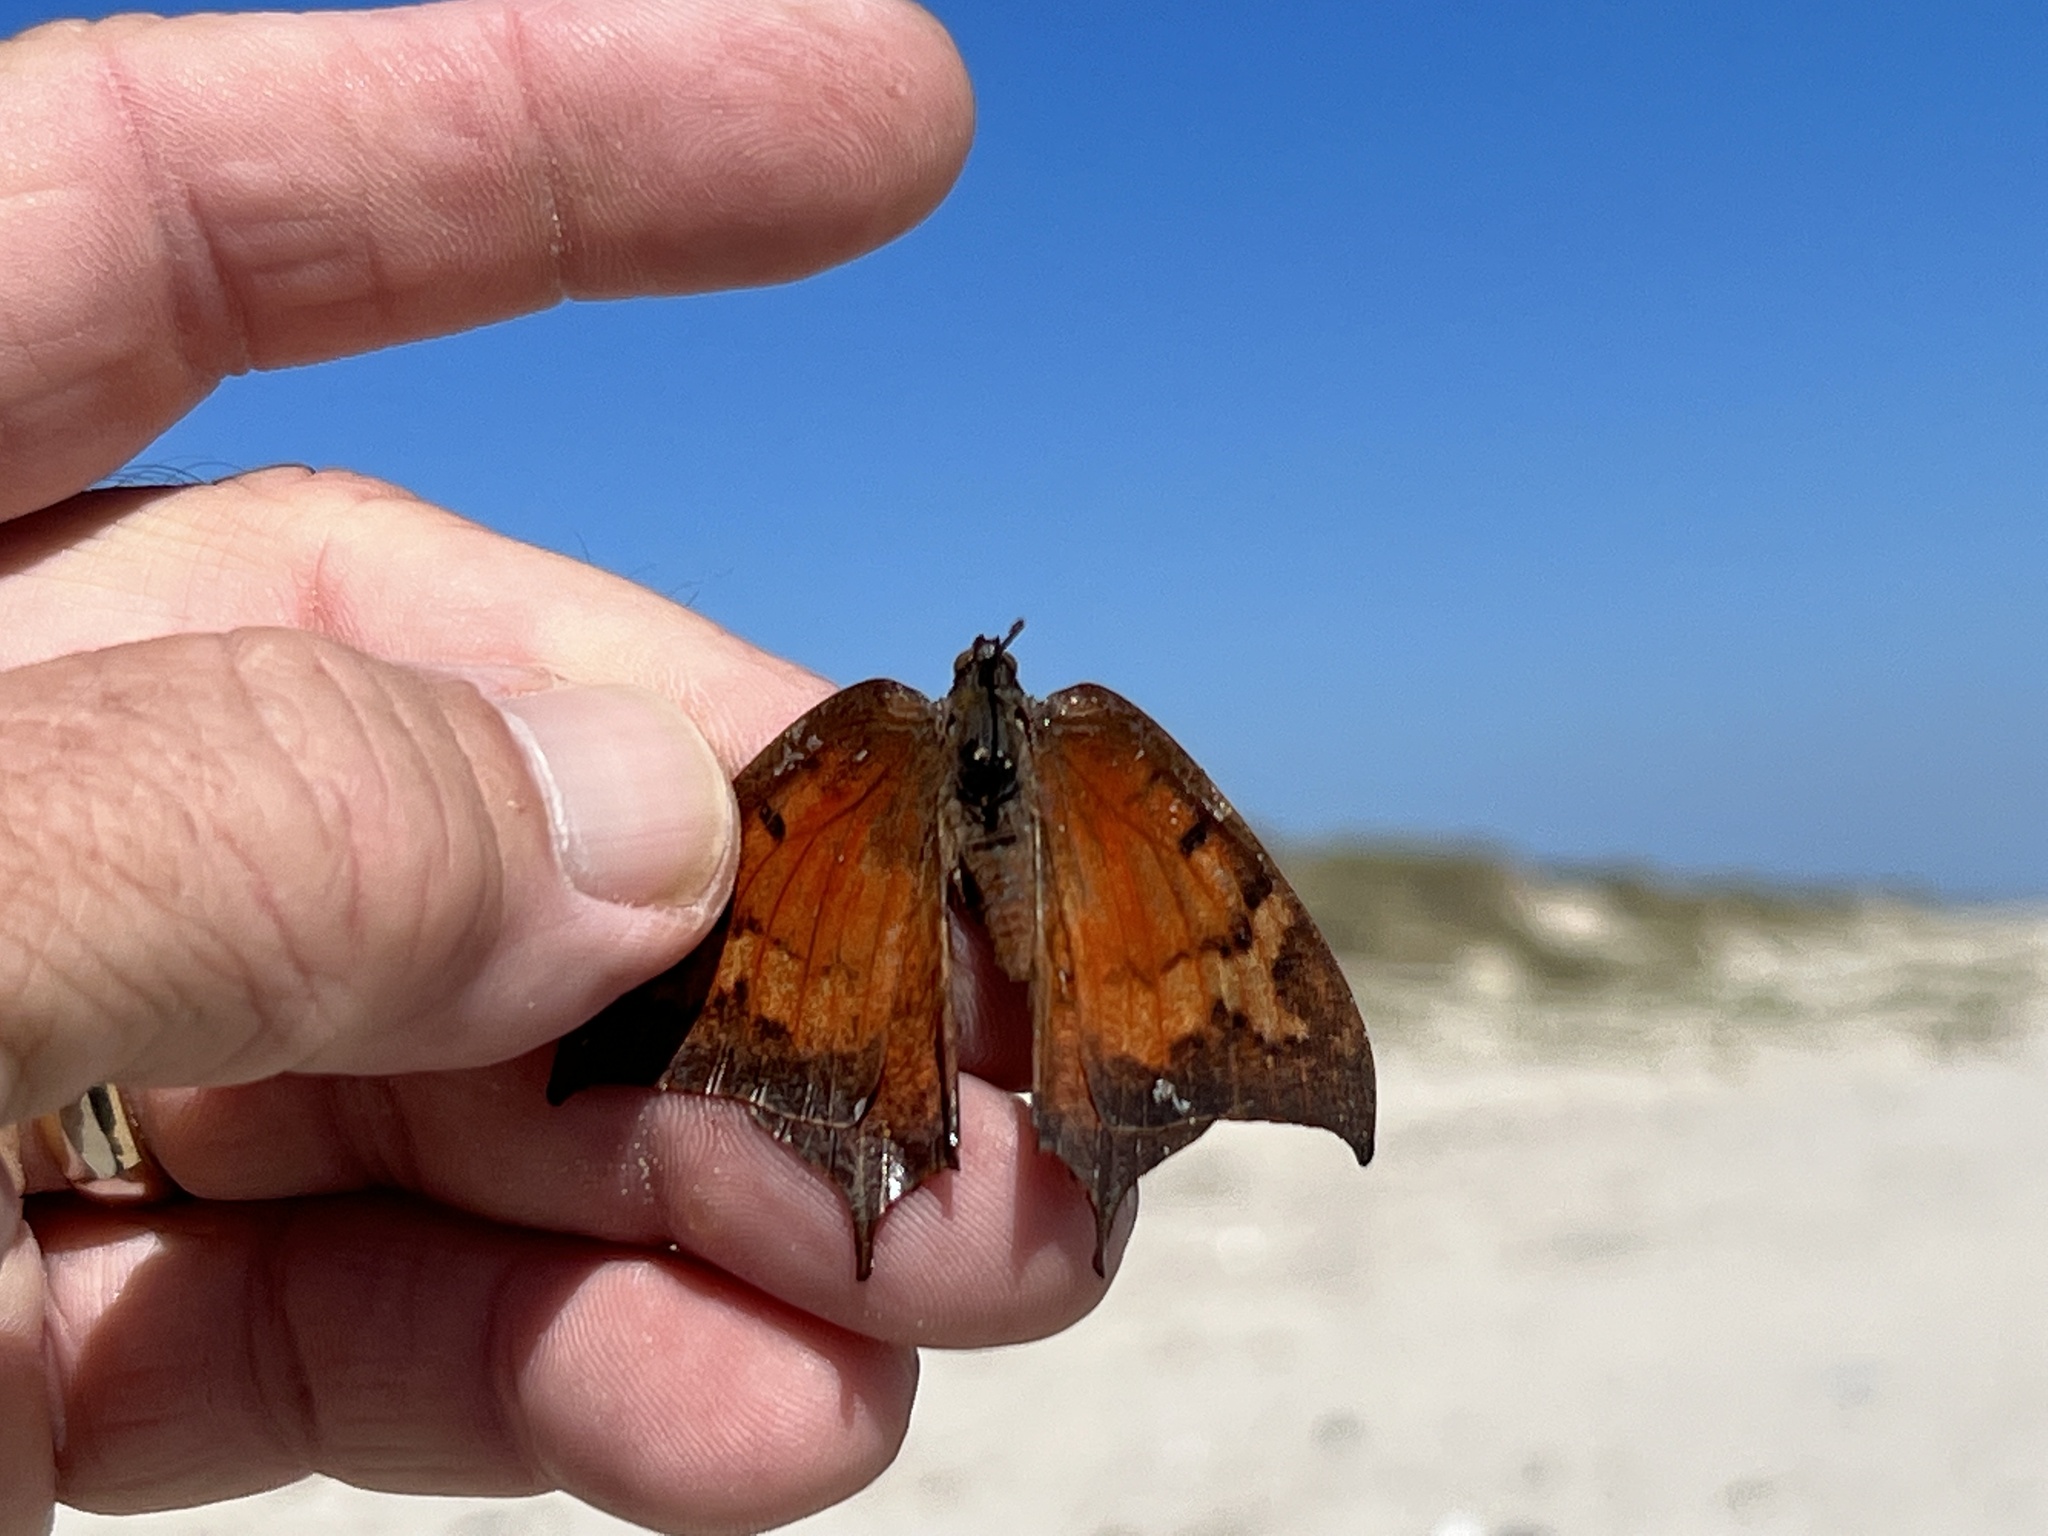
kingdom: Animalia
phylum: Arthropoda
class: Insecta
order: Lepidoptera
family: Nymphalidae
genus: Anaea
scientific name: Anaea andria
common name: Goatweed leafwing
